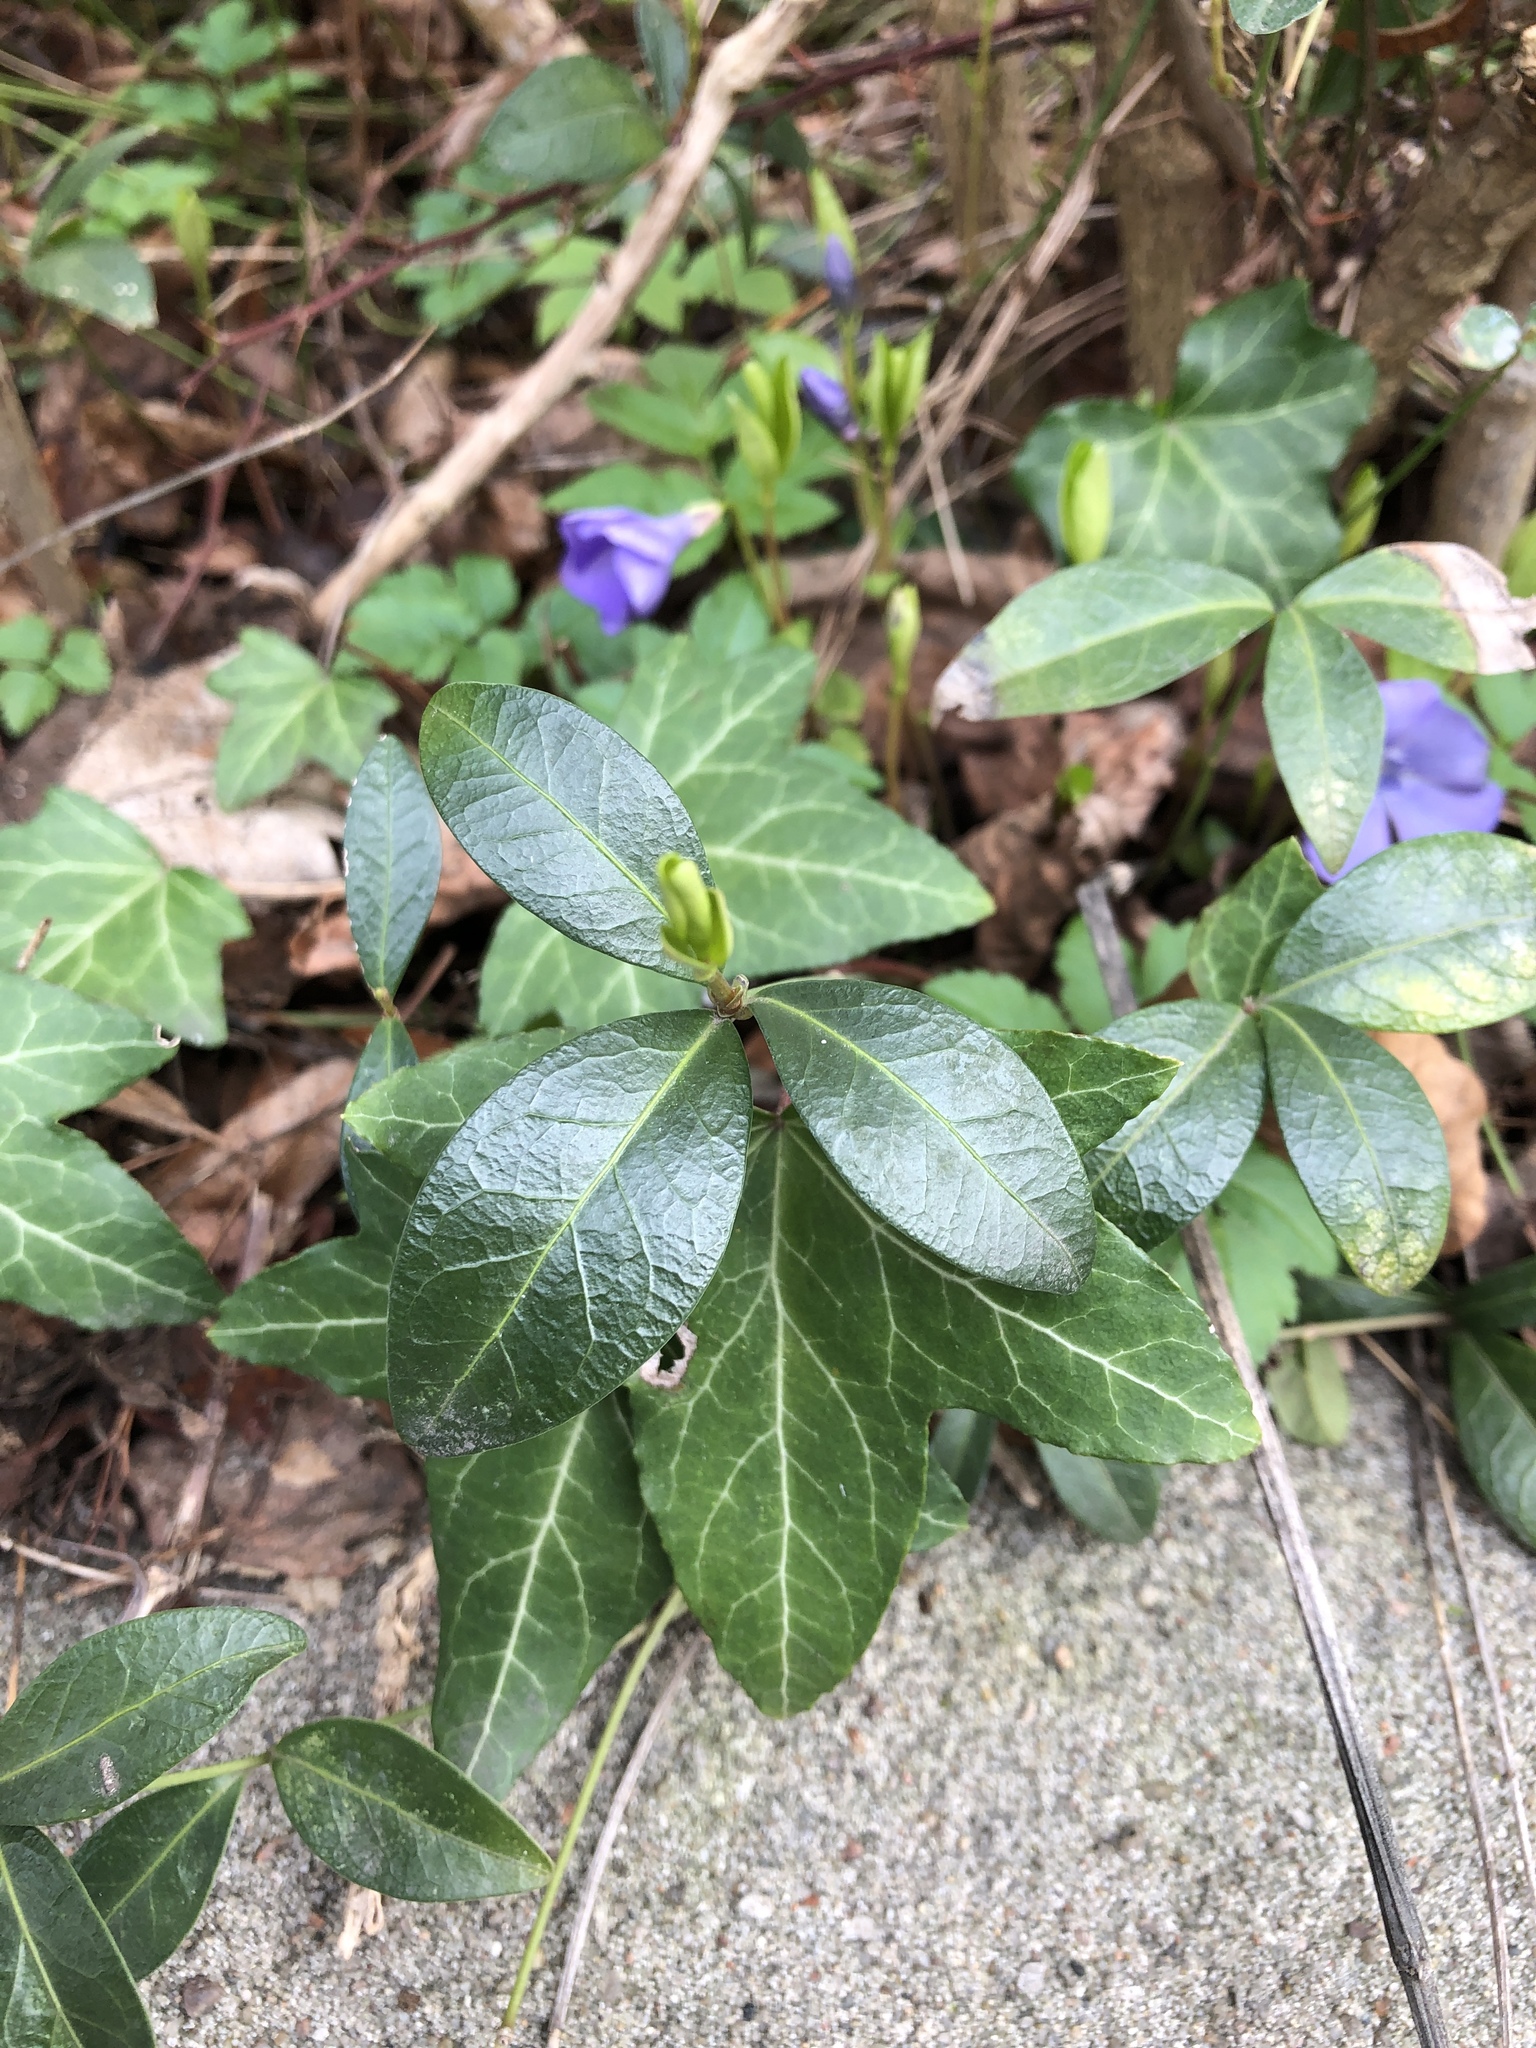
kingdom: Plantae
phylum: Tracheophyta
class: Magnoliopsida
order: Gentianales
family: Apocynaceae
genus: Vinca
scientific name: Vinca minor
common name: Lesser periwinkle
